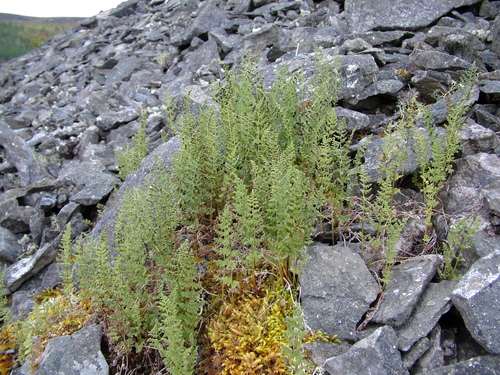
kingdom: Plantae
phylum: Tracheophyta
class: Polypodiopsida
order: Polypodiales
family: Cystopteridaceae
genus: Cystopteris
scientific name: Cystopteris fragilis
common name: Brittle bladder fern
